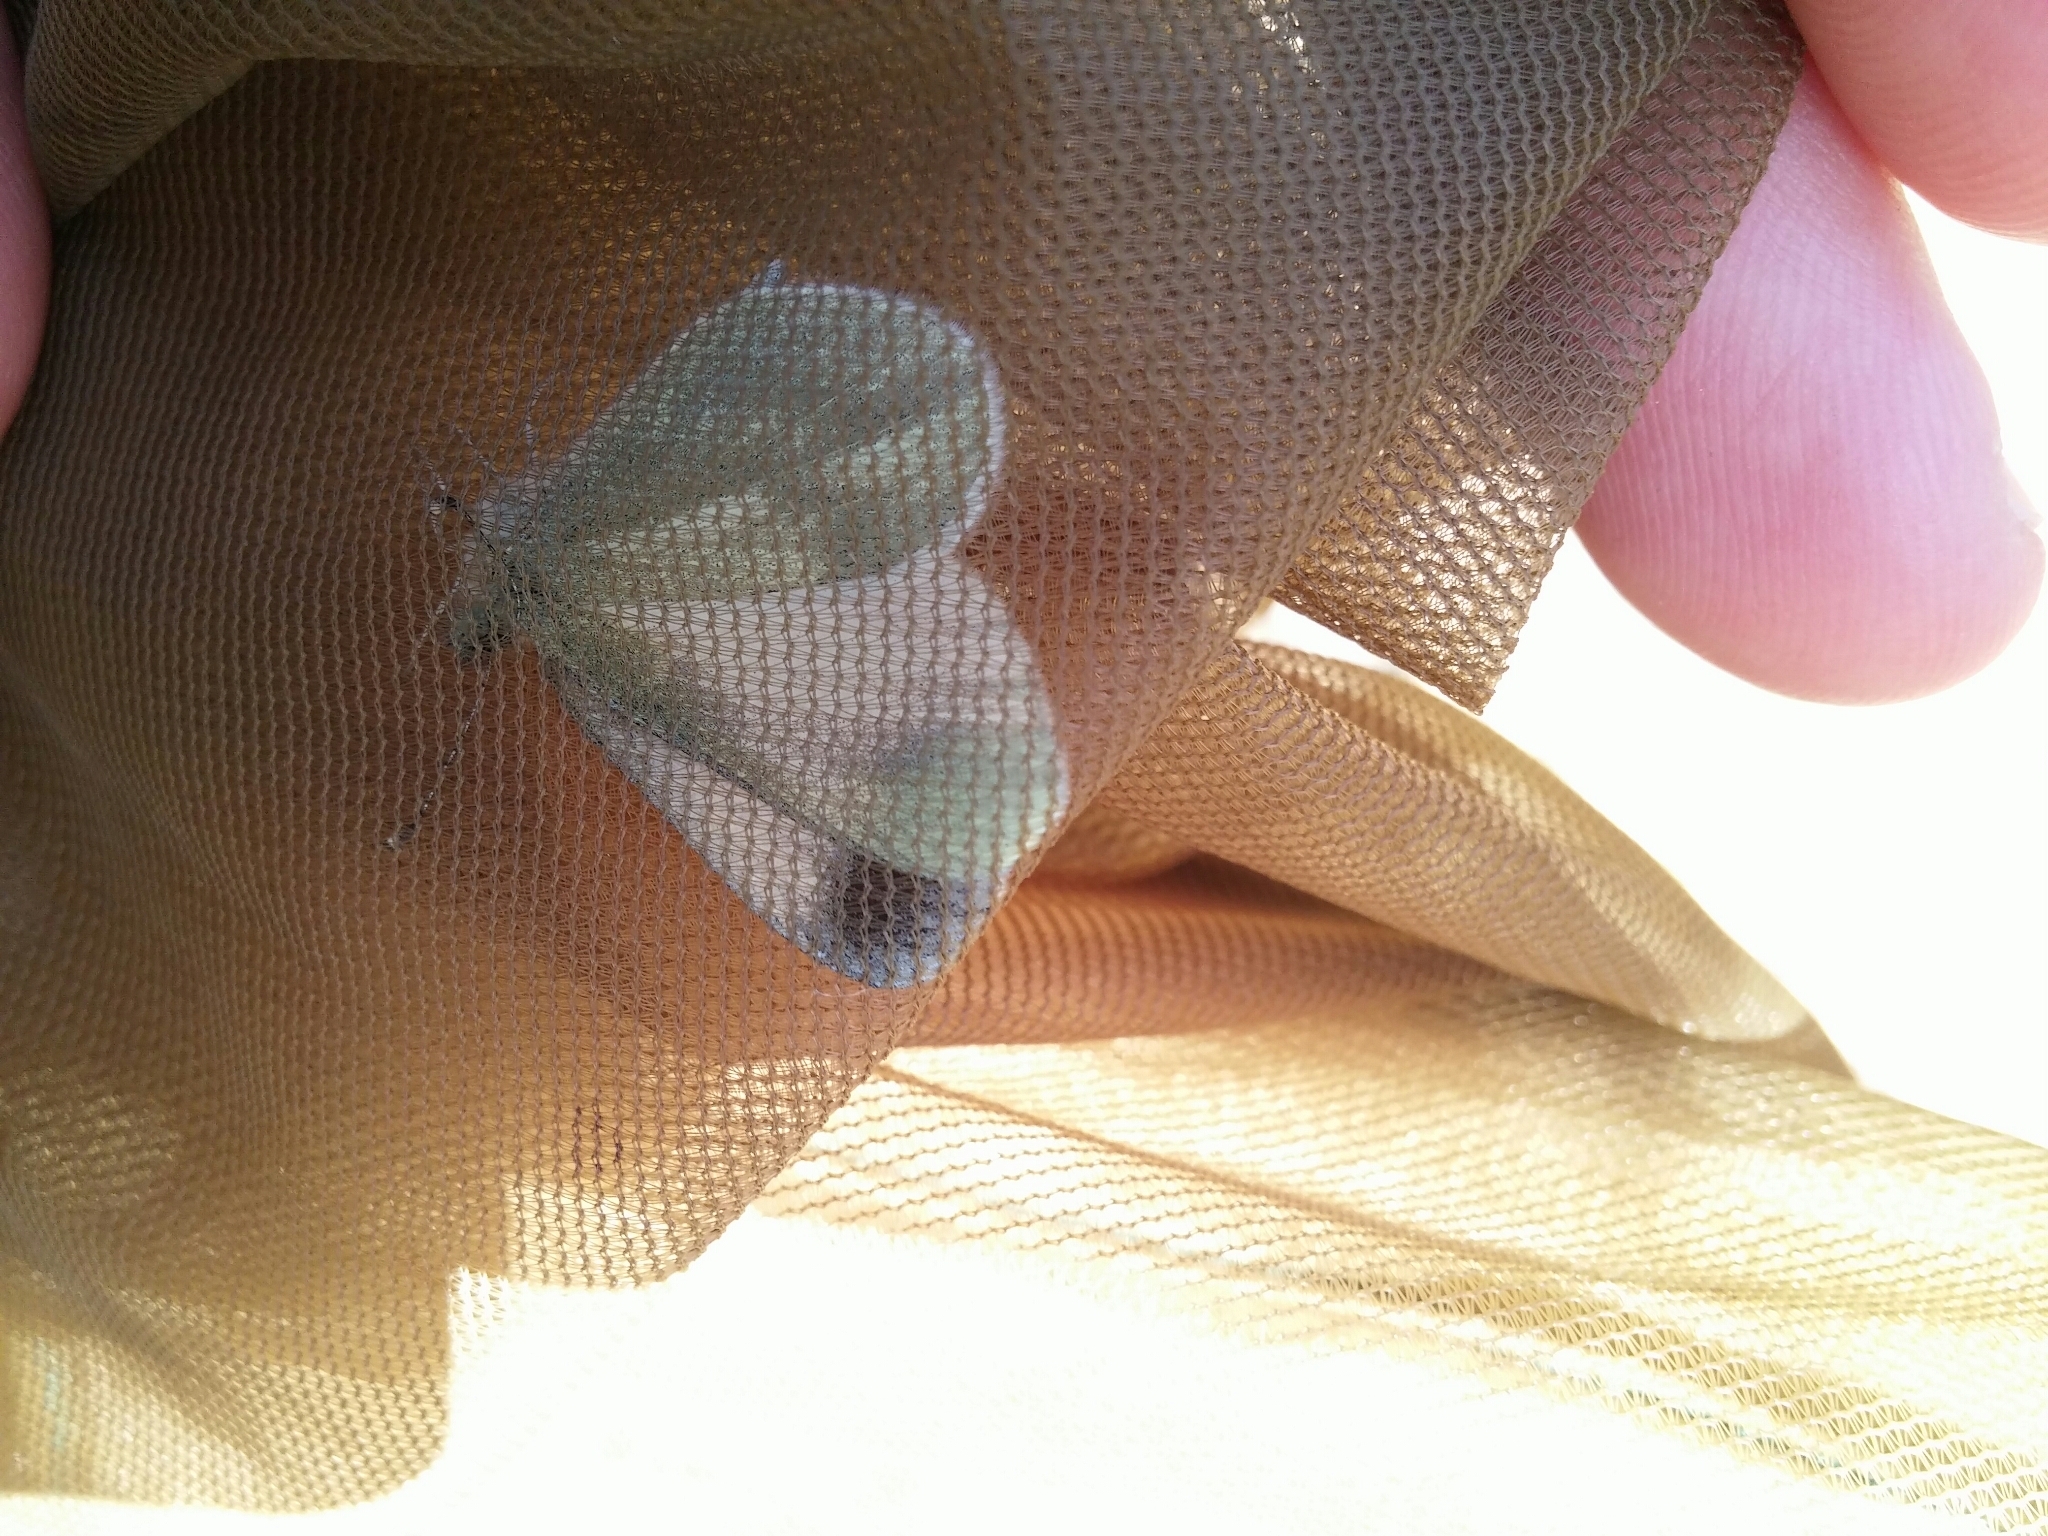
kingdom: Animalia
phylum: Arthropoda
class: Insecta
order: Lepidoptera
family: Pieridae
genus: Leptidea
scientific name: Leptidea sinapis
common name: Wood white
